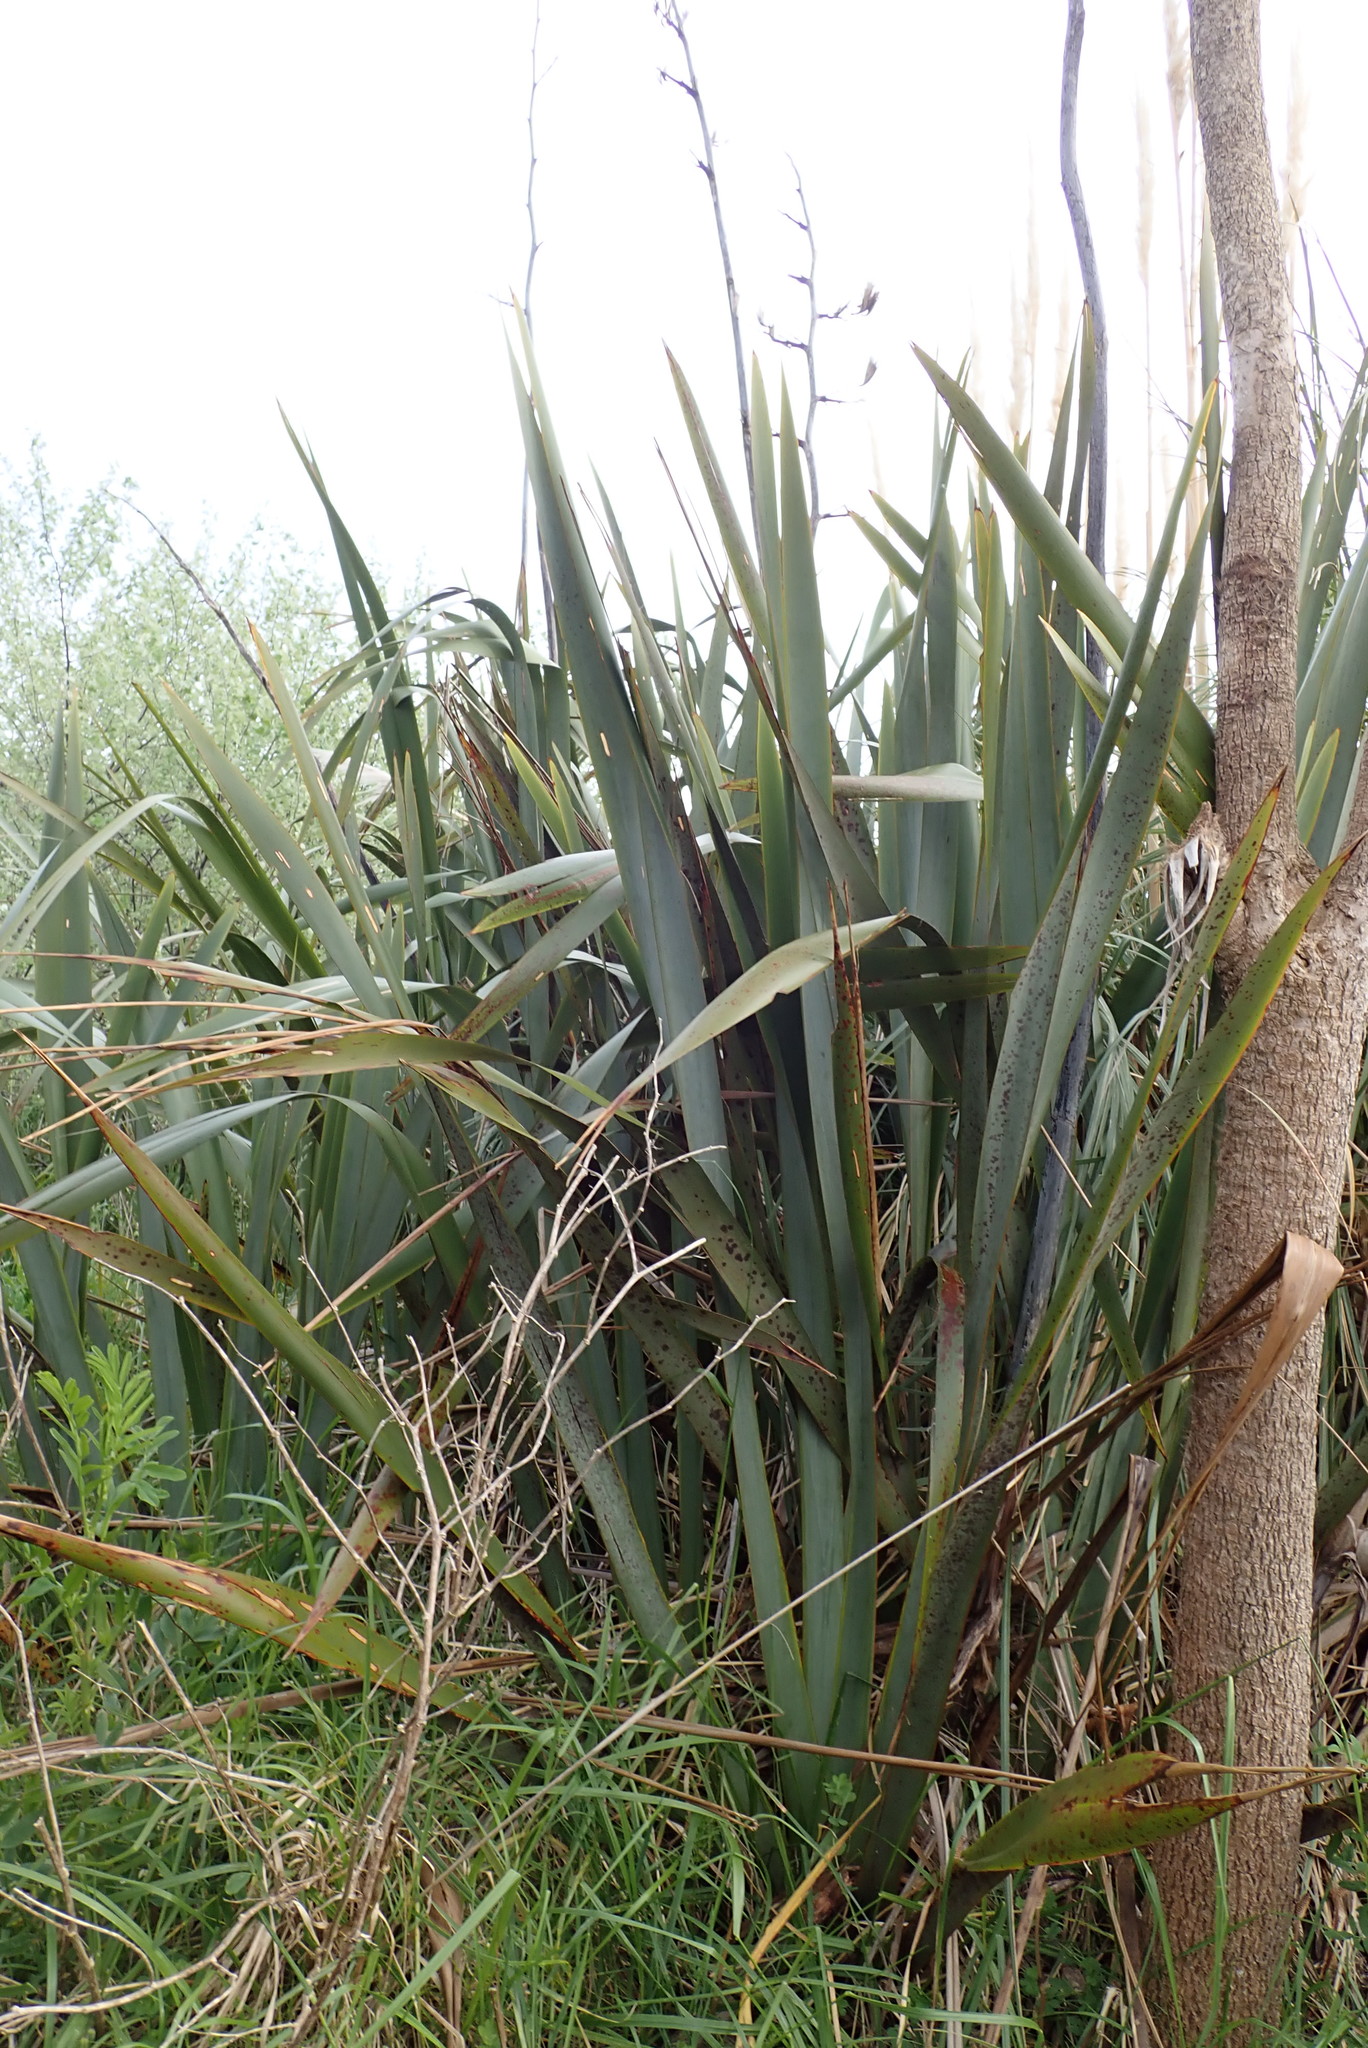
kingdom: Plantae
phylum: Tracheophyta
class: Liliopsida
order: Asparagales
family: Asphodelaceae
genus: Phormium
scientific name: Phormium tenax
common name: New zealand flax
